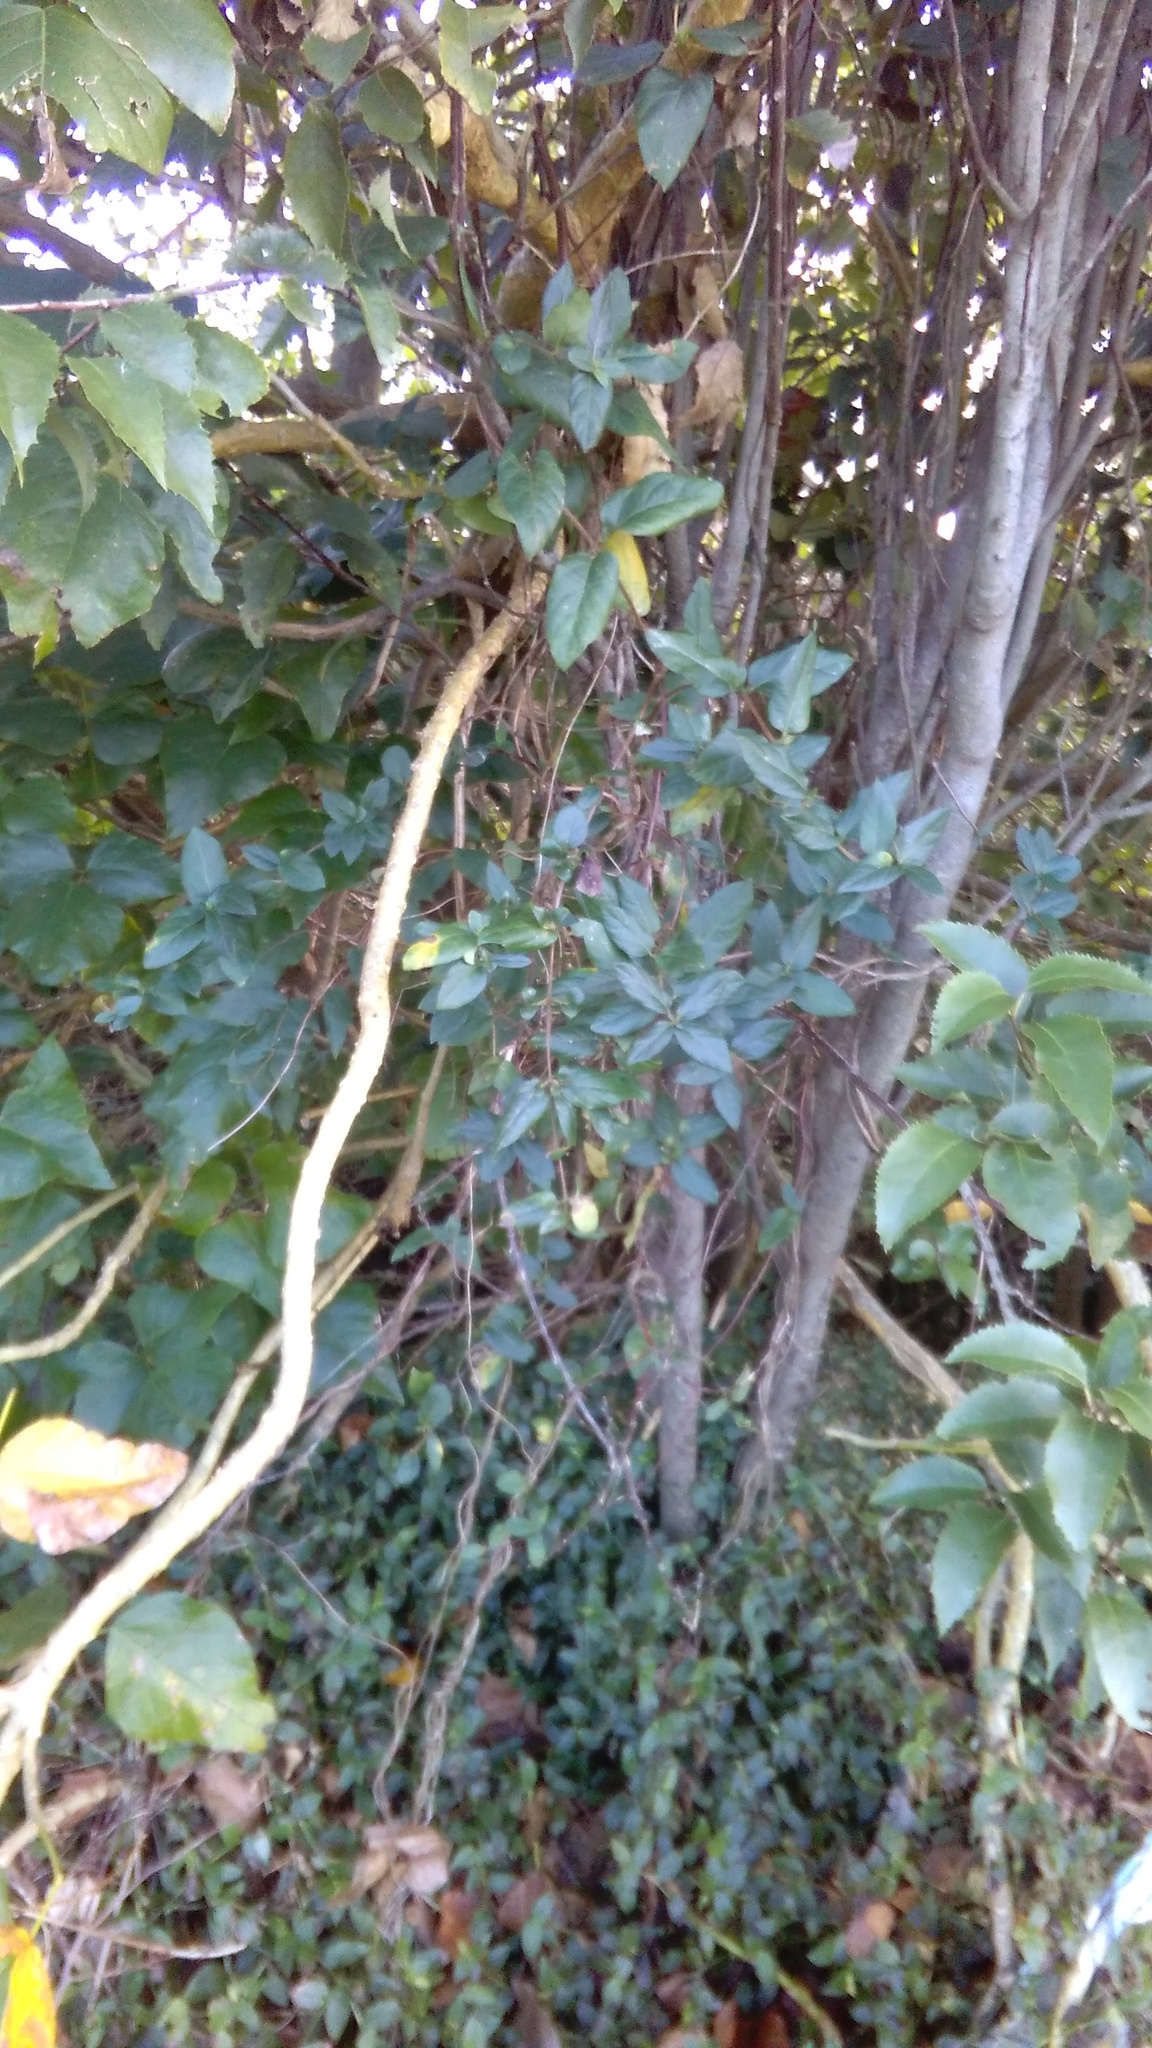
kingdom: Plantae
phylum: Tracheophyta
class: Liliopsida
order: Commelinales
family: Commelinaceae
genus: Tradescantia
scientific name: Tradescantia fluminensis
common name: Wandering-jew
